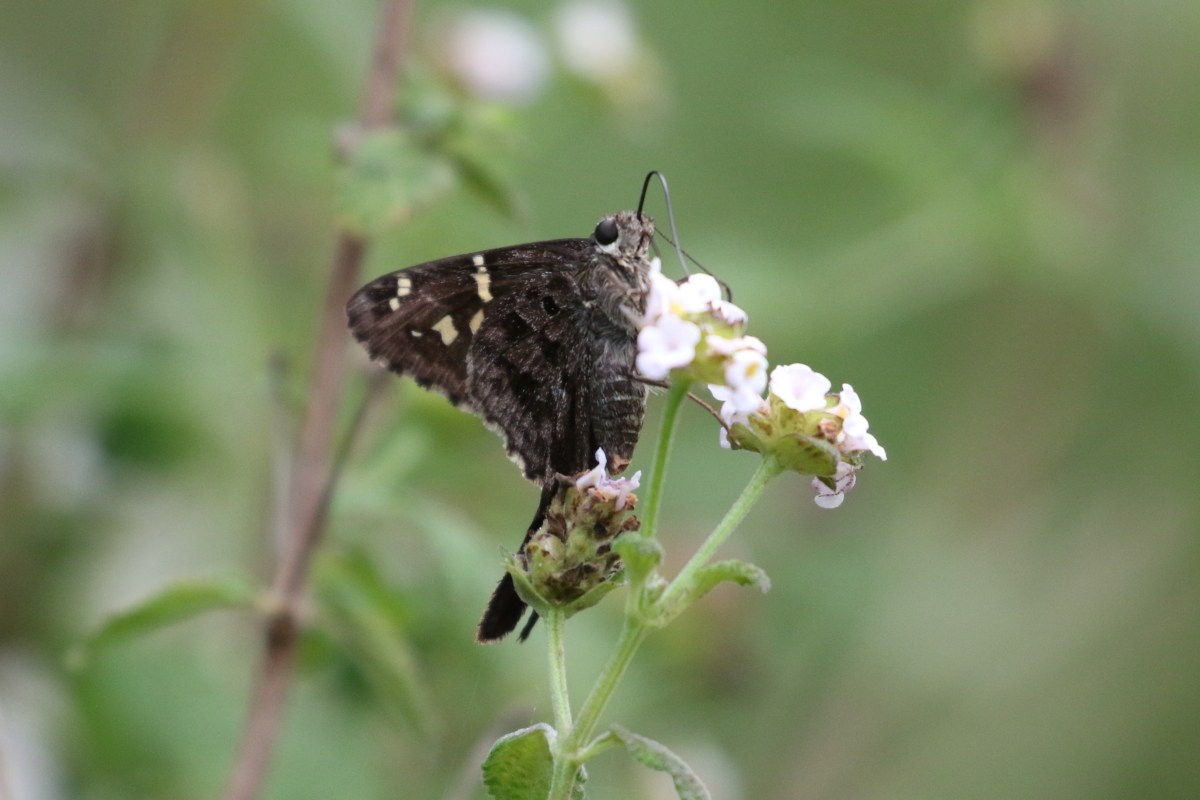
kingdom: Animalia
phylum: Arthropoda
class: Insecta
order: Lepidoptera
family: Hesperiidae
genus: Thorybes
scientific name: Thorybes
